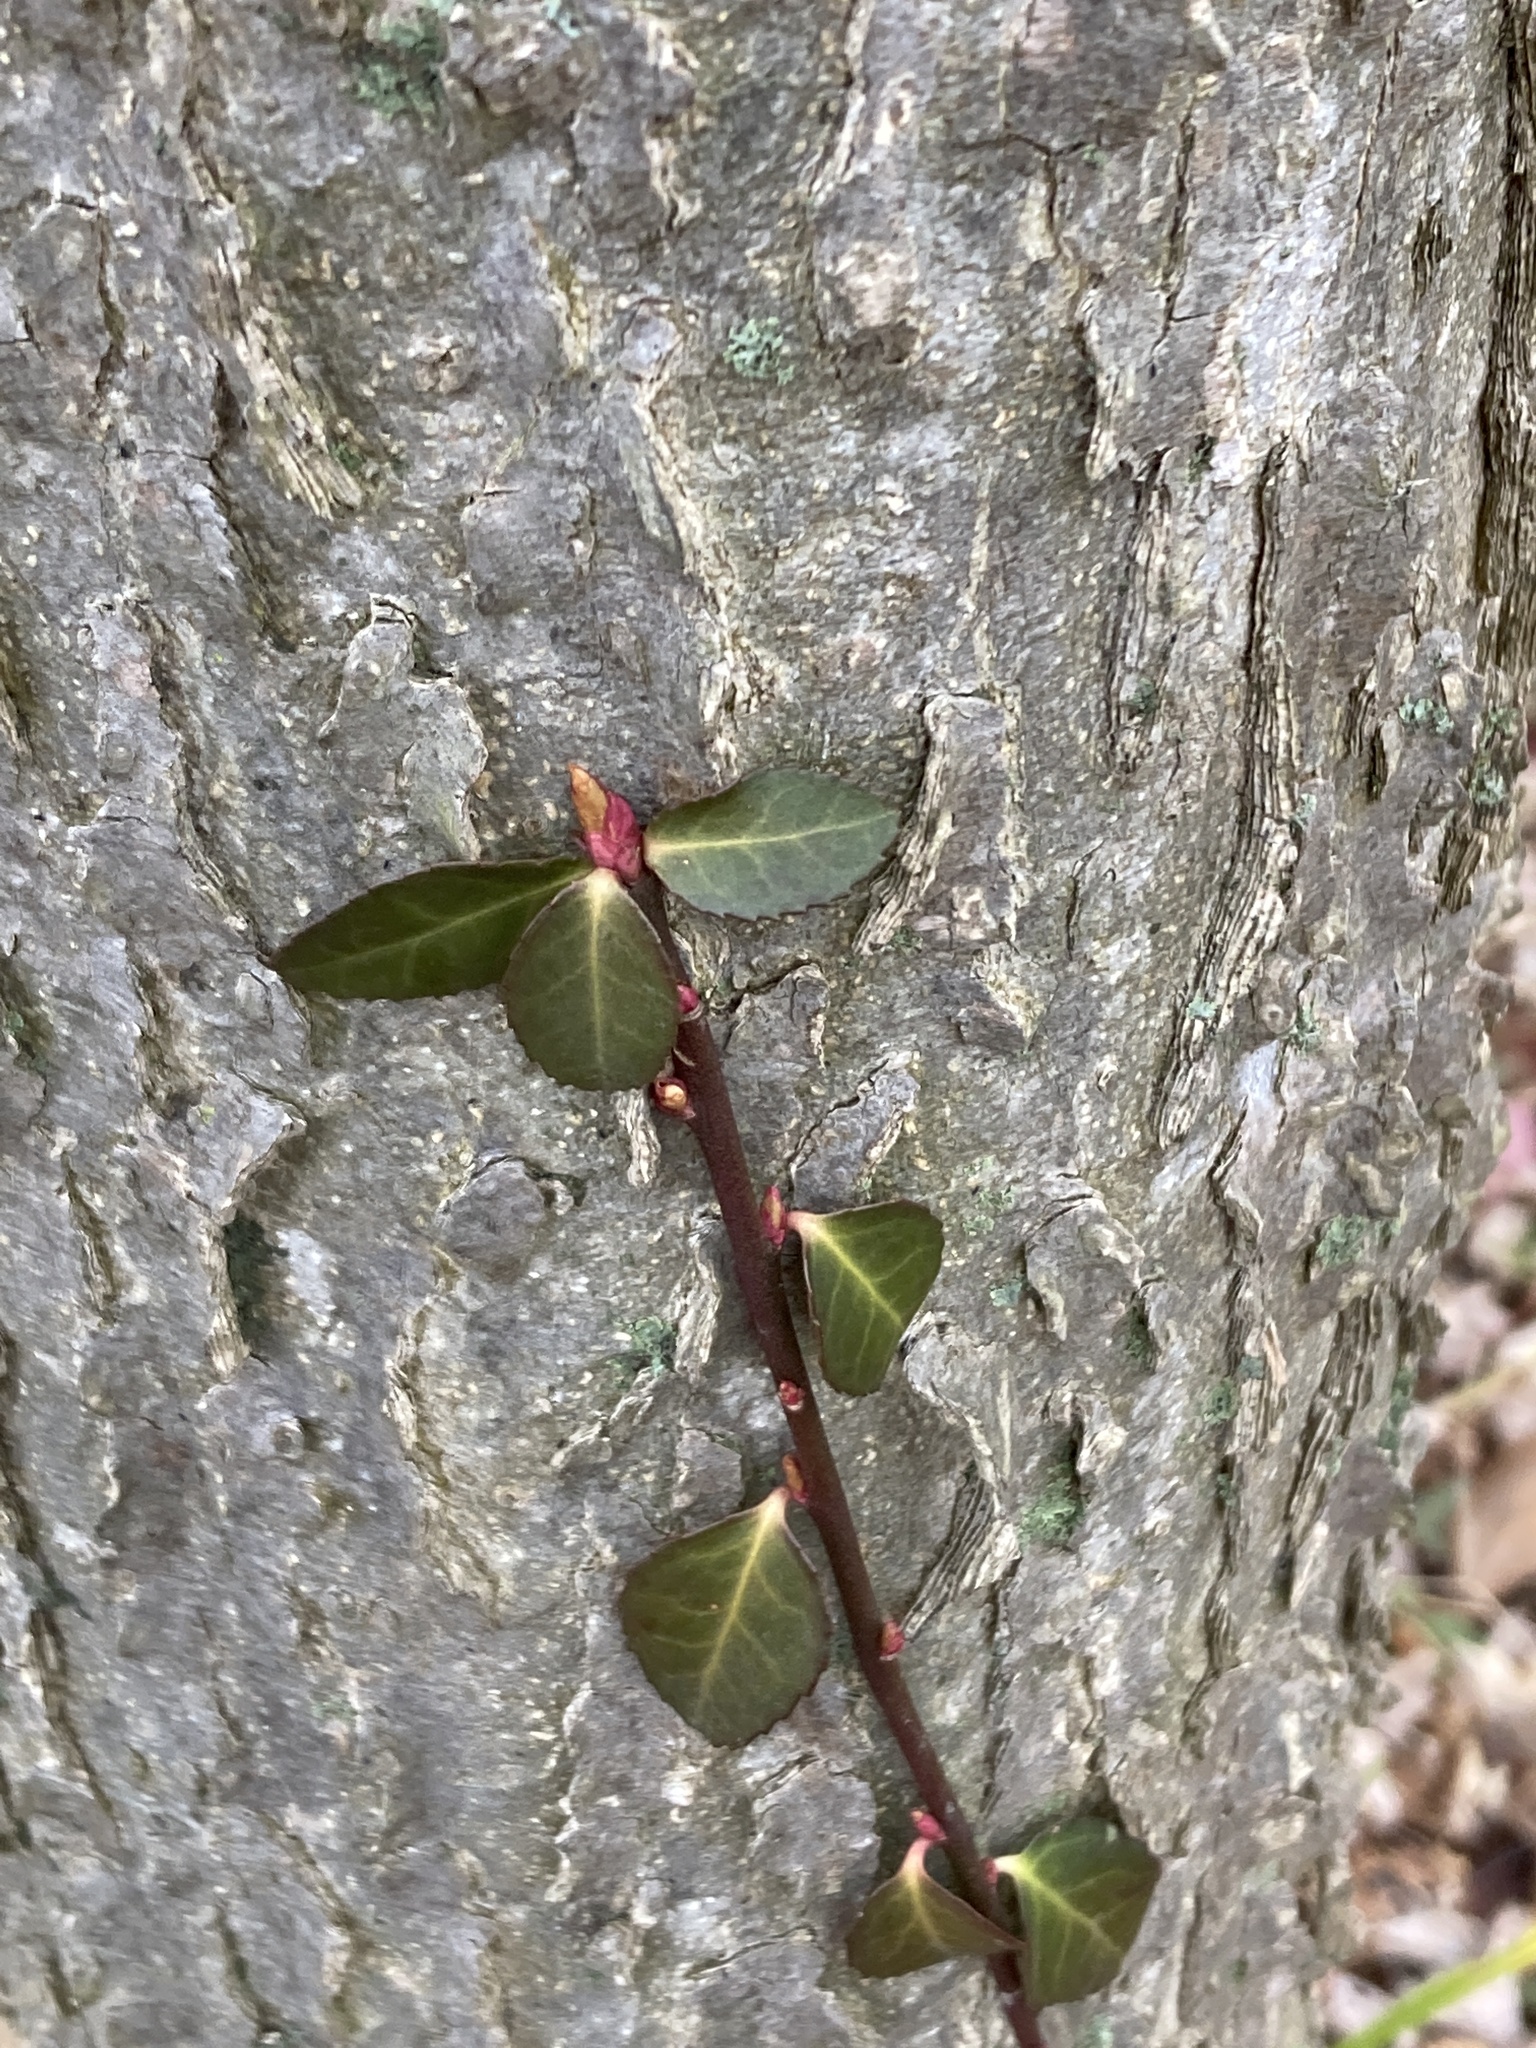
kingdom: Plantae
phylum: Tracheophyta
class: Magnoliopsida
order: Celastrales
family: Celastraceae
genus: Euonymus
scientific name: Euonymus fortunei
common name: Climbing euonymus
